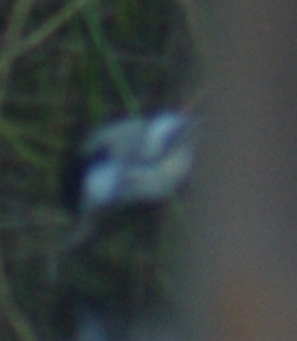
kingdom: Animalia
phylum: Chordata
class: Aves
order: Passeriformes
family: Paridae
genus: Poecile
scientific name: Poecile atricapillus
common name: Black-capped chickadee
